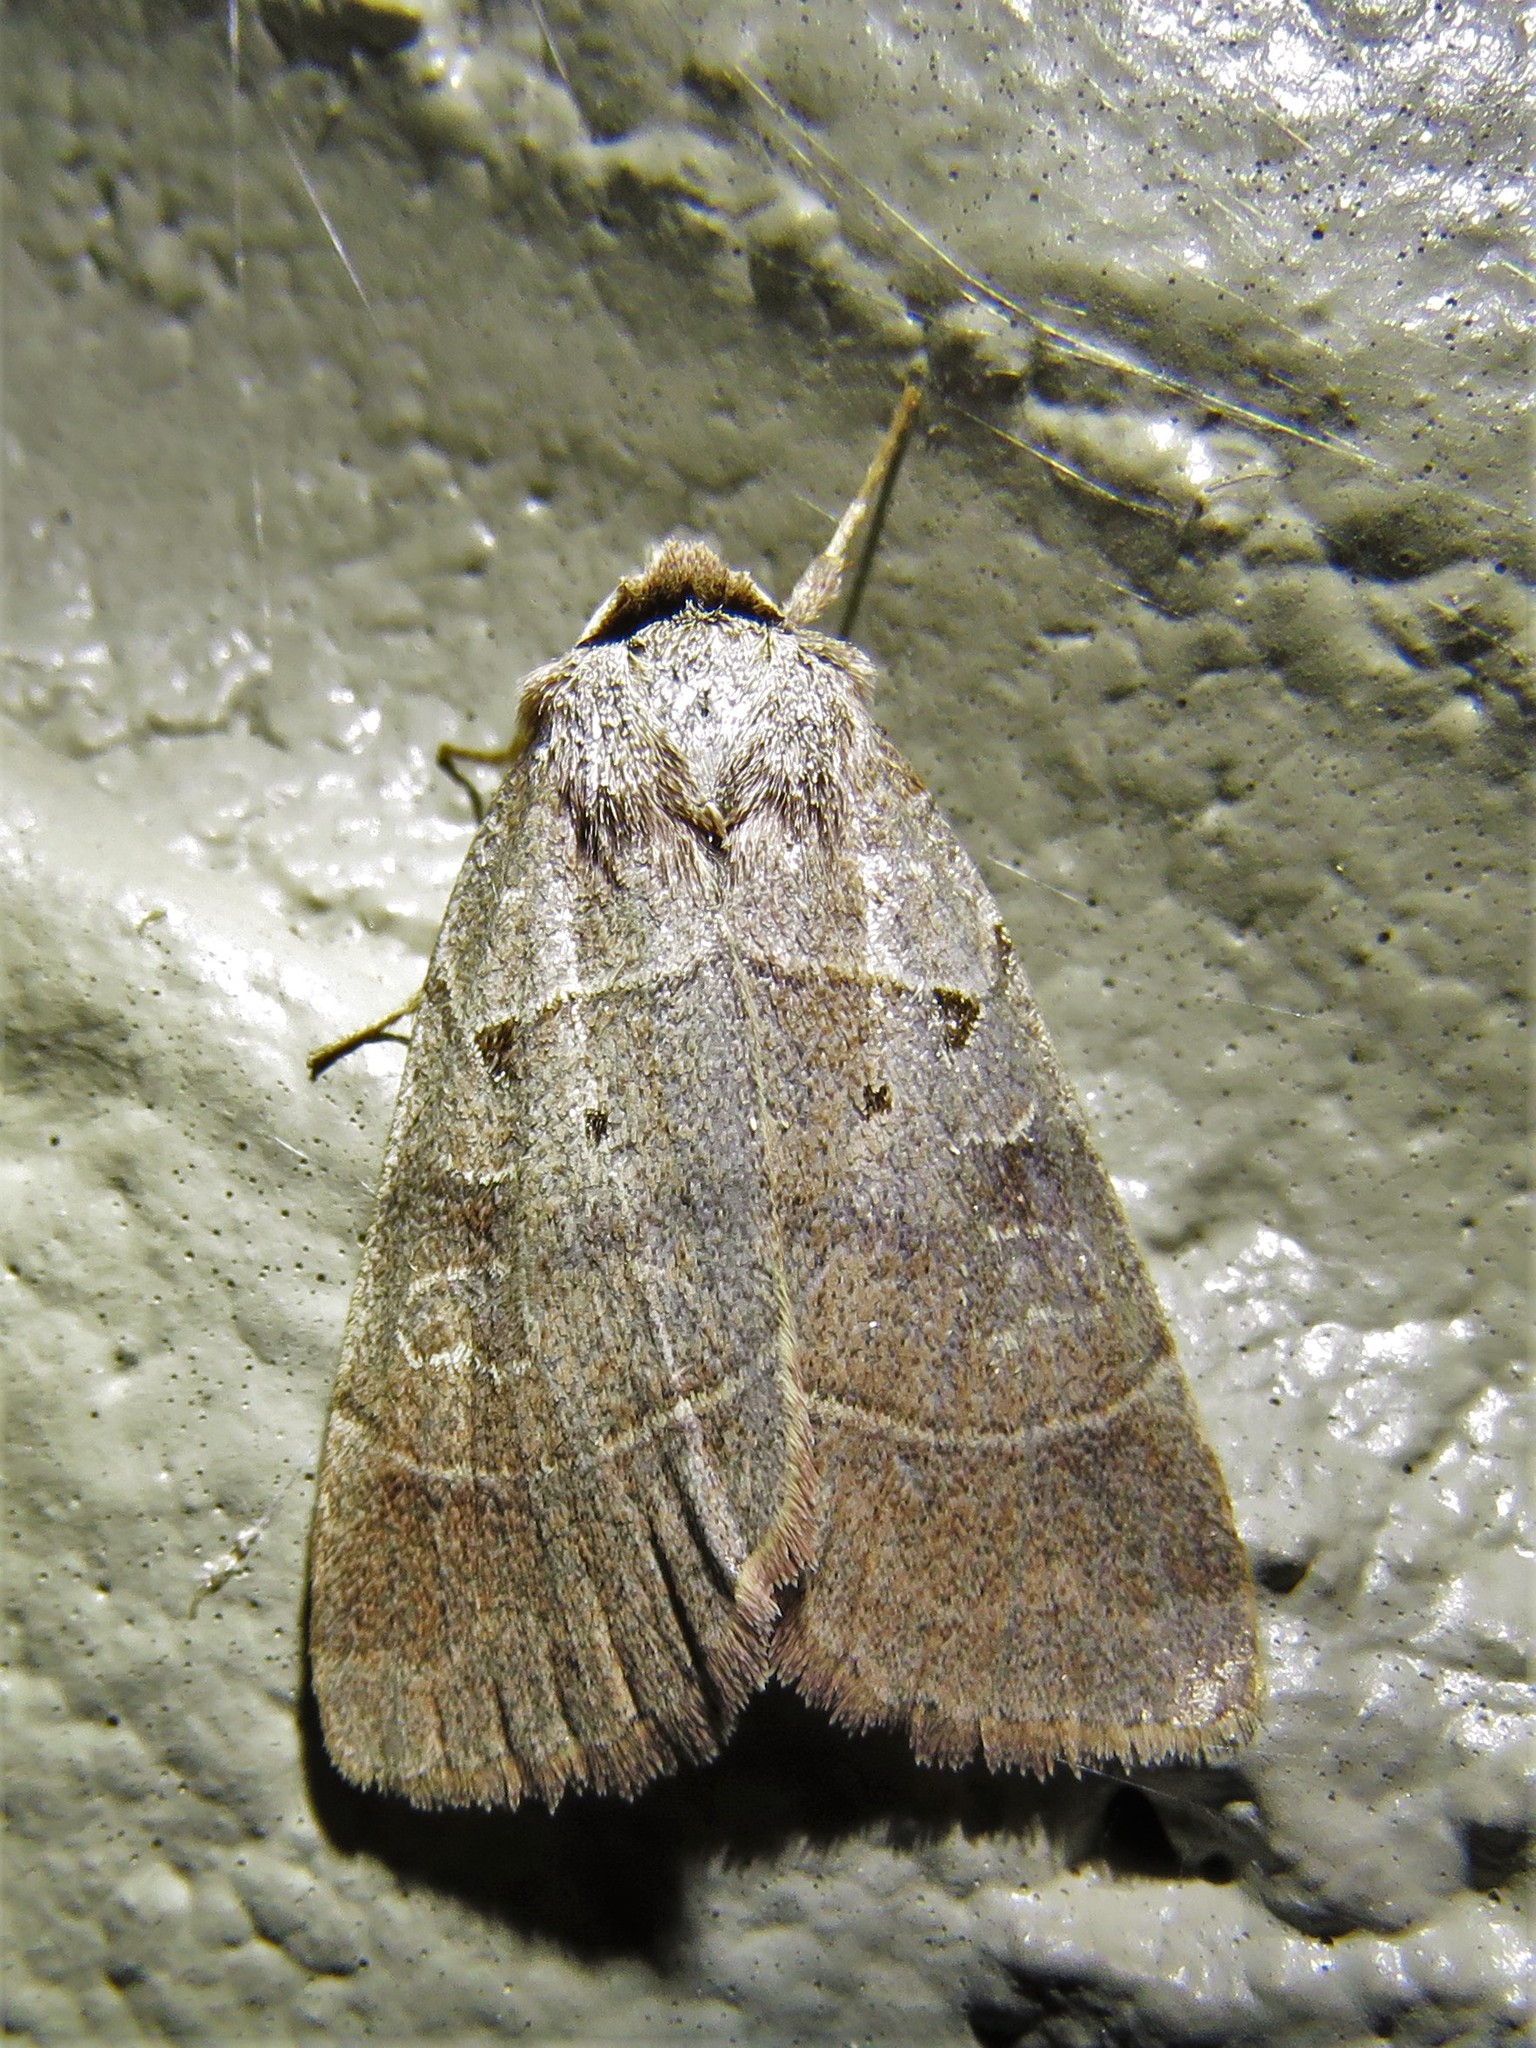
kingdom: Animalia
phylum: Arthropoda
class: Insecta
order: Lepidoptera
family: Noctuidae
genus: Agnorisma
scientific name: Agnorisma badinodis
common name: Pale-banded dart
